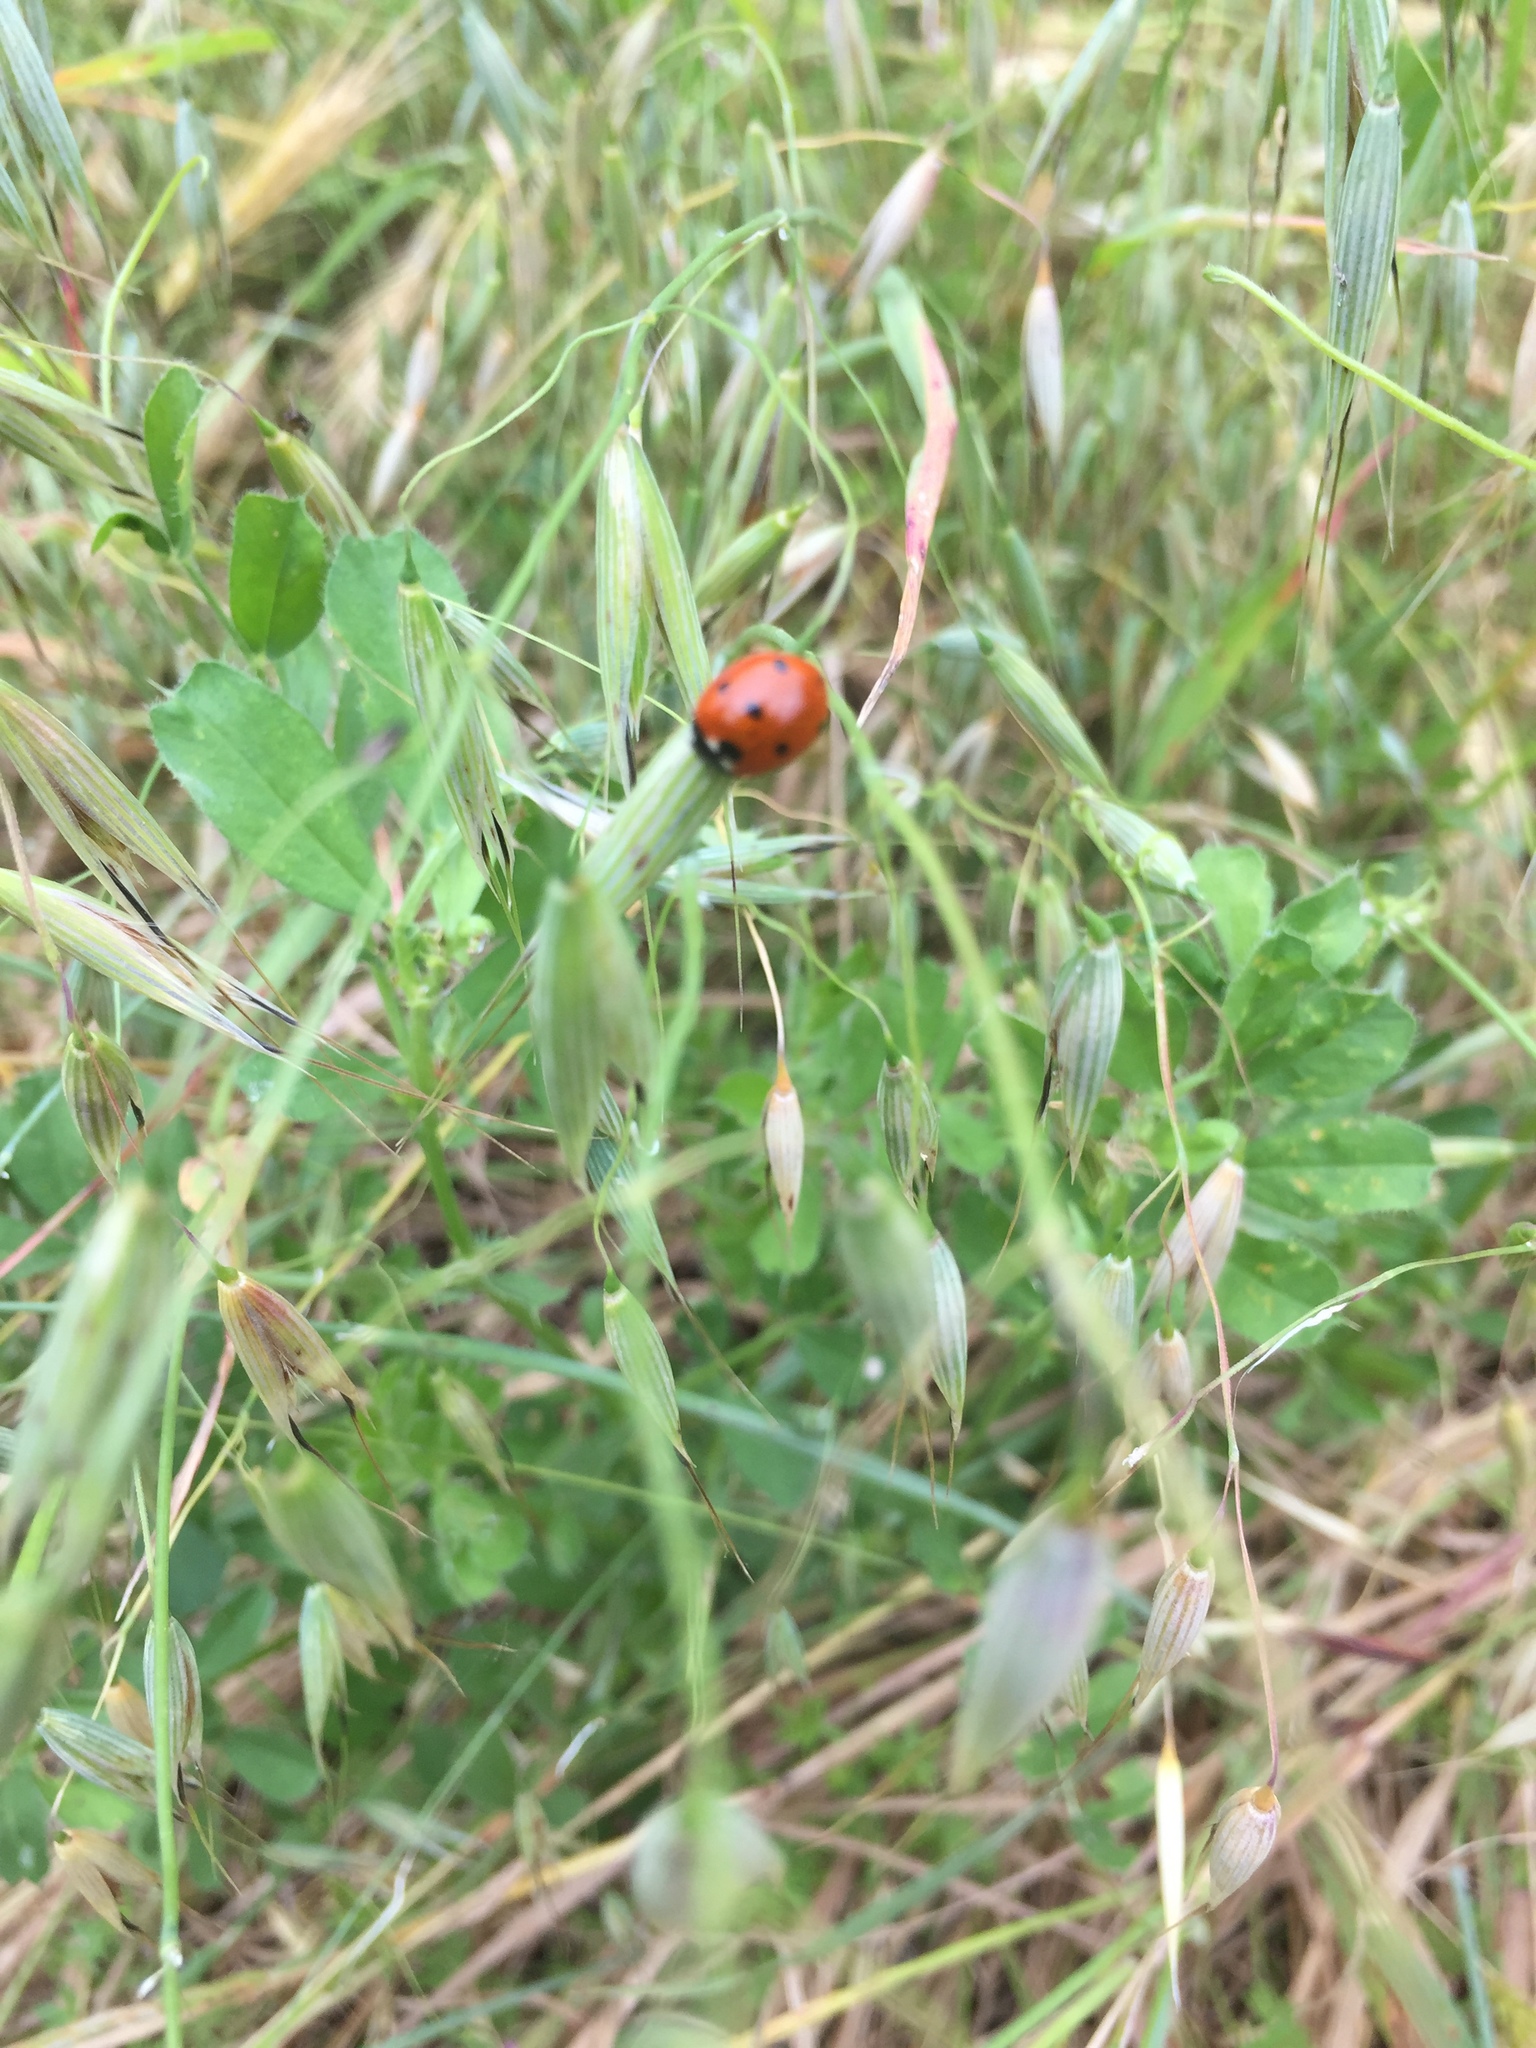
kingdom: Animalia
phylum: Arthropoda
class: Insecta
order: Coleoptera
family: Coccinellidae
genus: Coccinella
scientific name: Coccinella septempunctata
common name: Sevenspotted lady beetle
